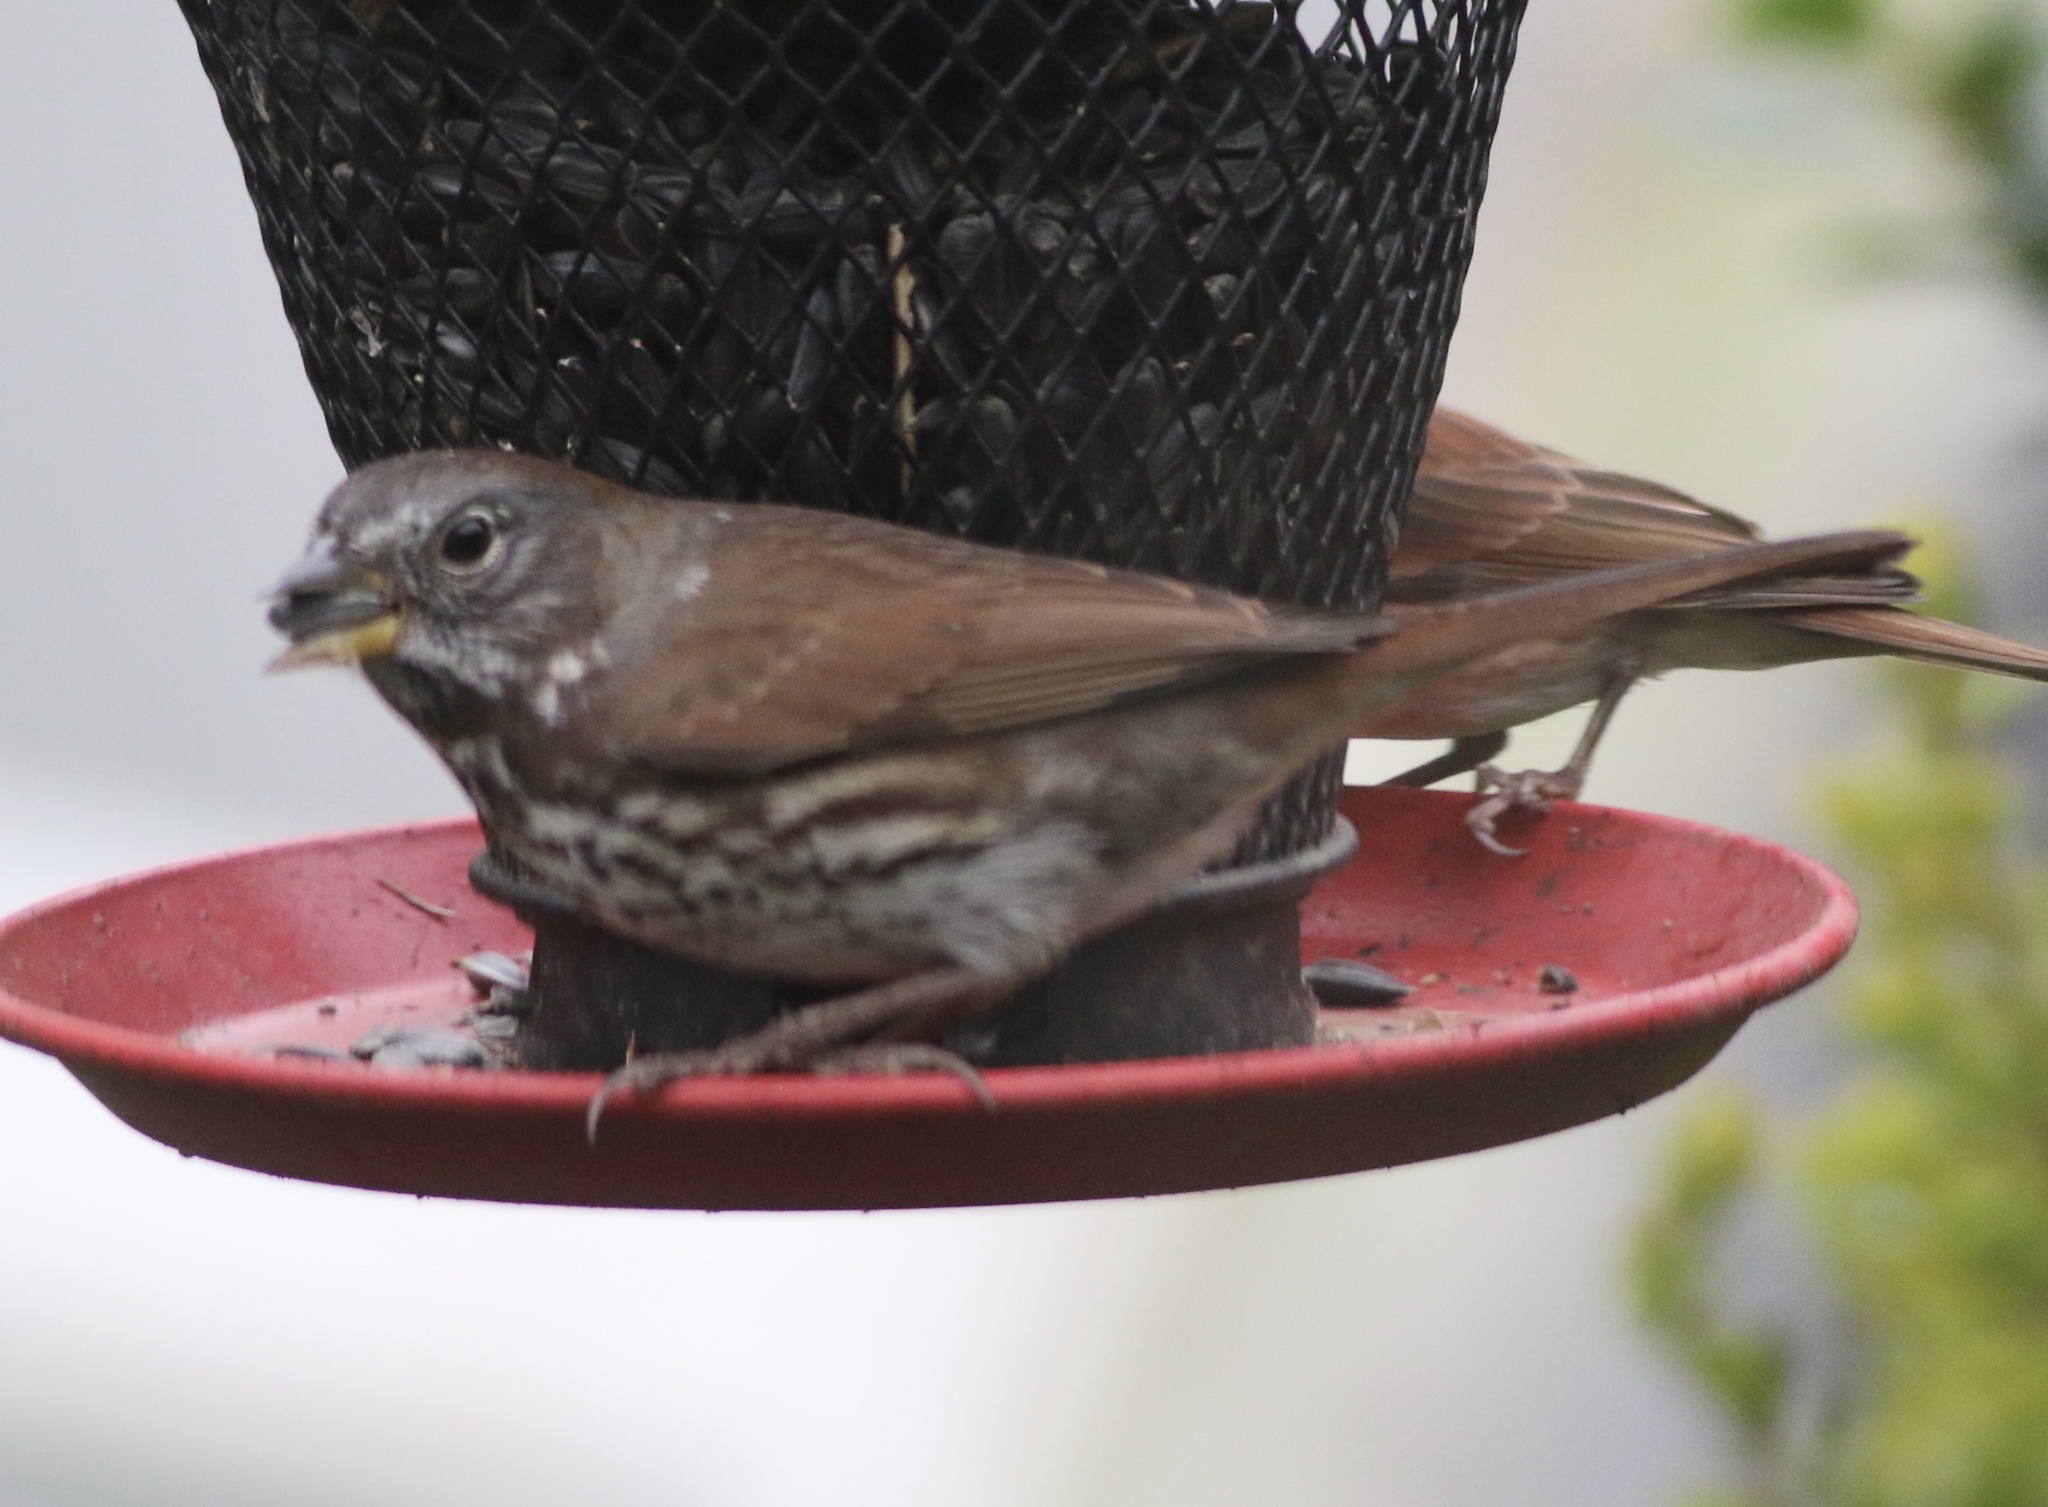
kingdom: Animalia
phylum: Chordata
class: Aves
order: Passeriformes
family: Passerellidae
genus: Passerella
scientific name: Passerella iliaca
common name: Fox sparrow
